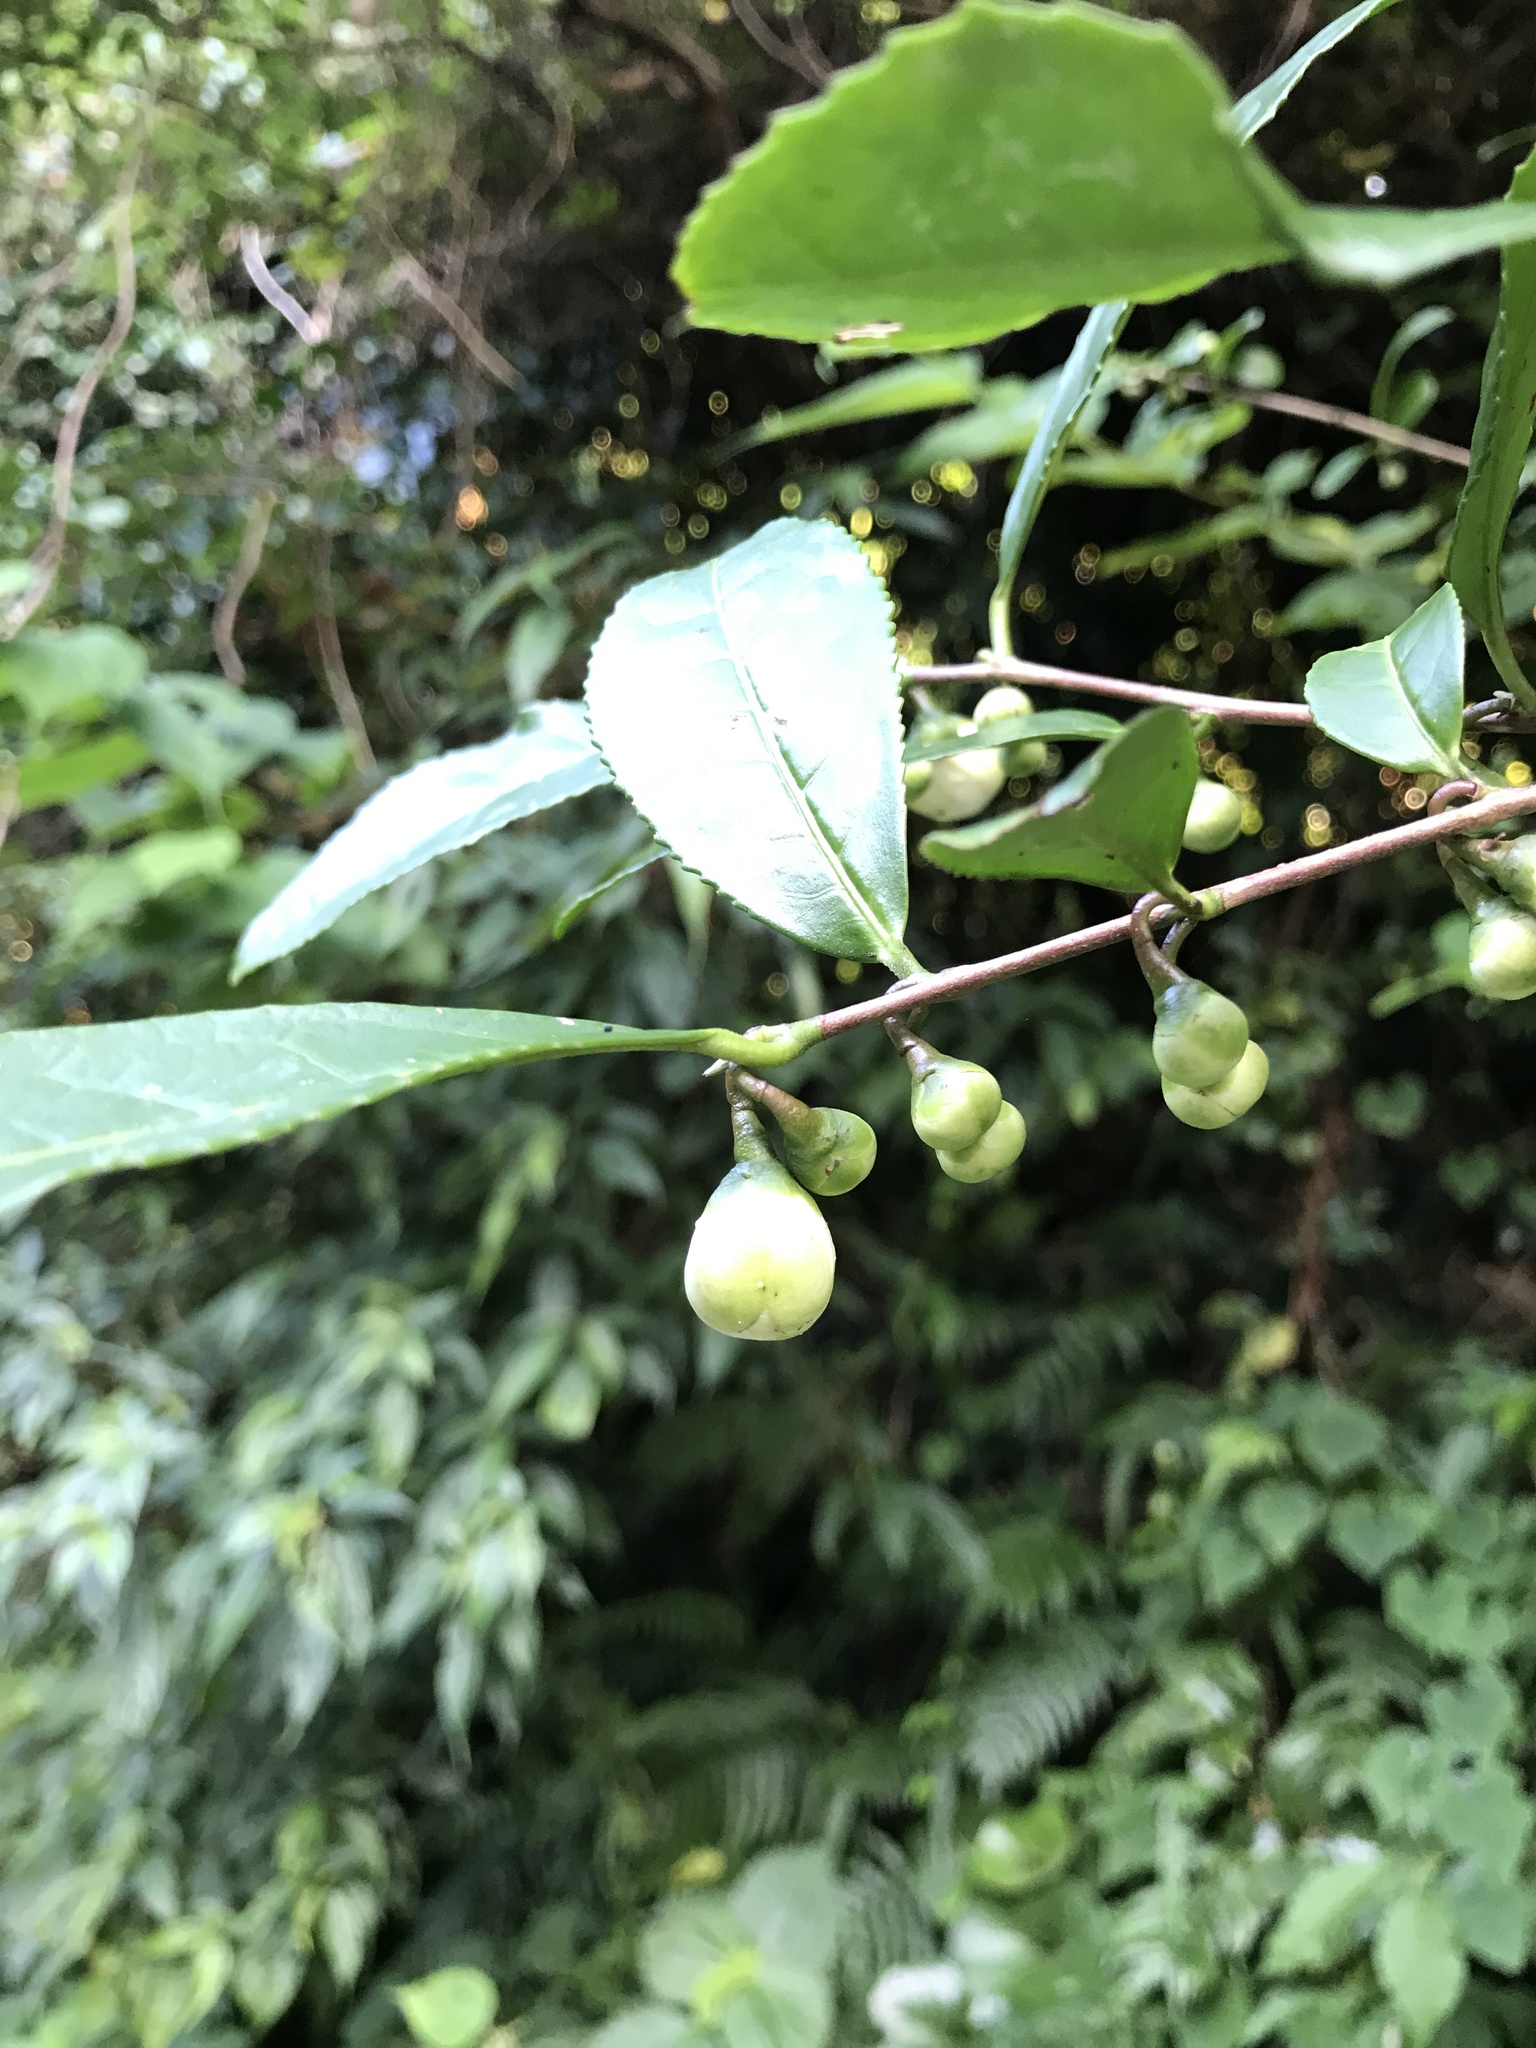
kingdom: Plantae
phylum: Tracheophyta
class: Magnoliopsida
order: Ericales
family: Theaceae
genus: Camellia
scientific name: Camellia sinensis
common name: Tea
